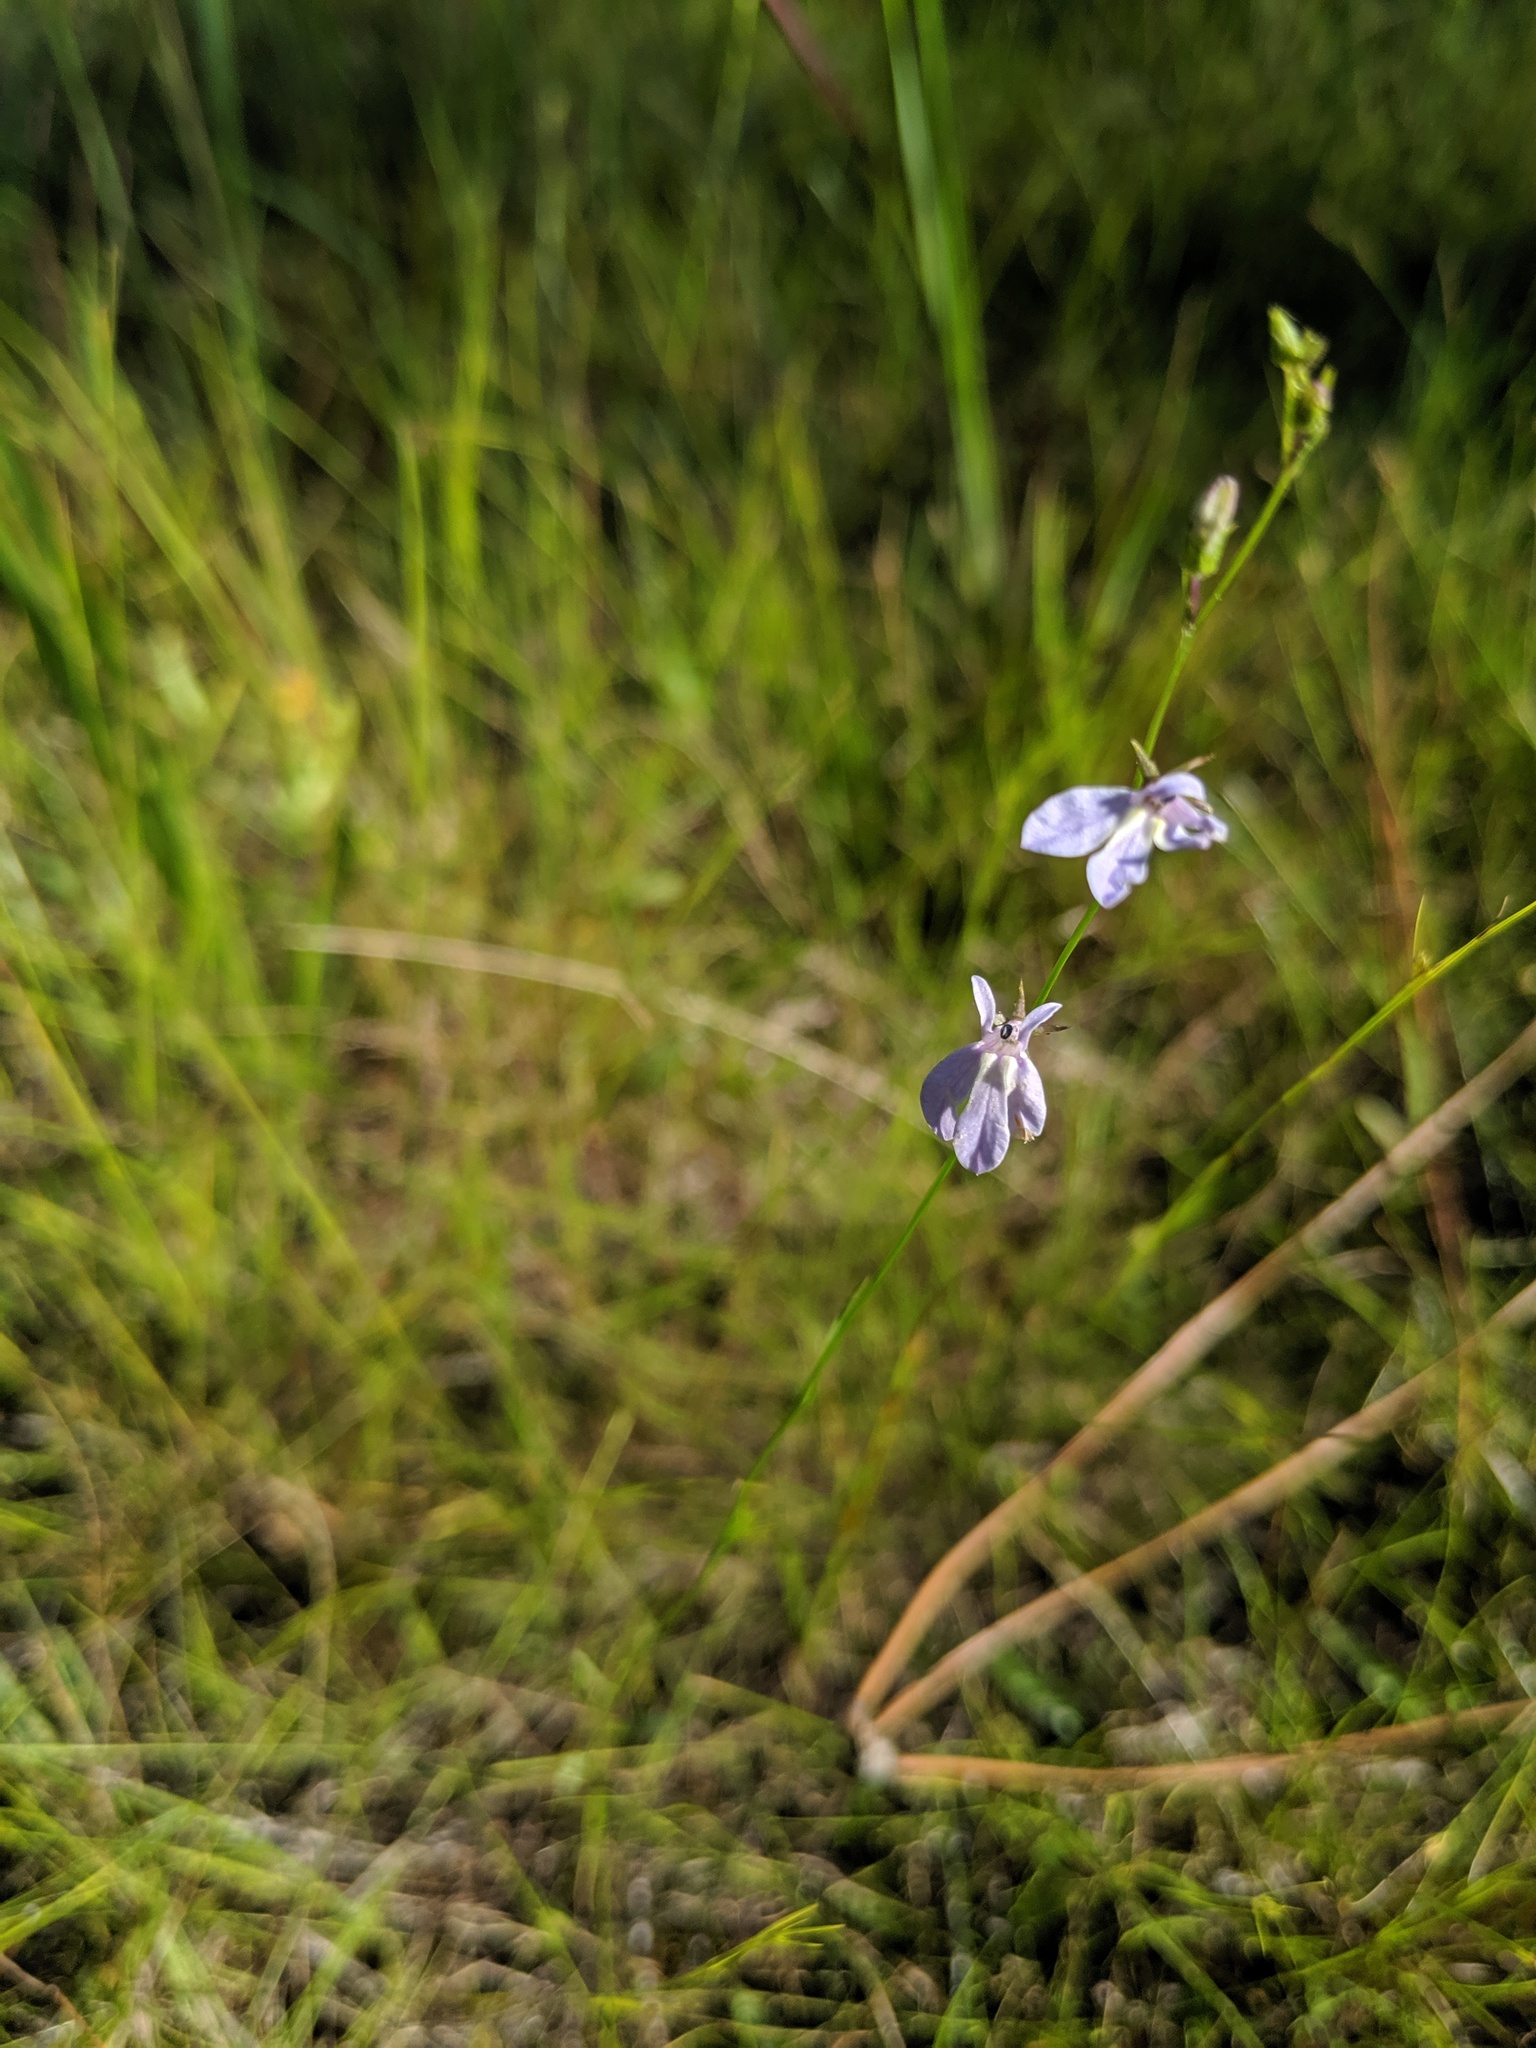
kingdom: Plantae
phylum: Tracheophyta
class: Magnoliopsida
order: Asterales
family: Campanulaceae
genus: Lobelia
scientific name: Lobelia nuttallii
